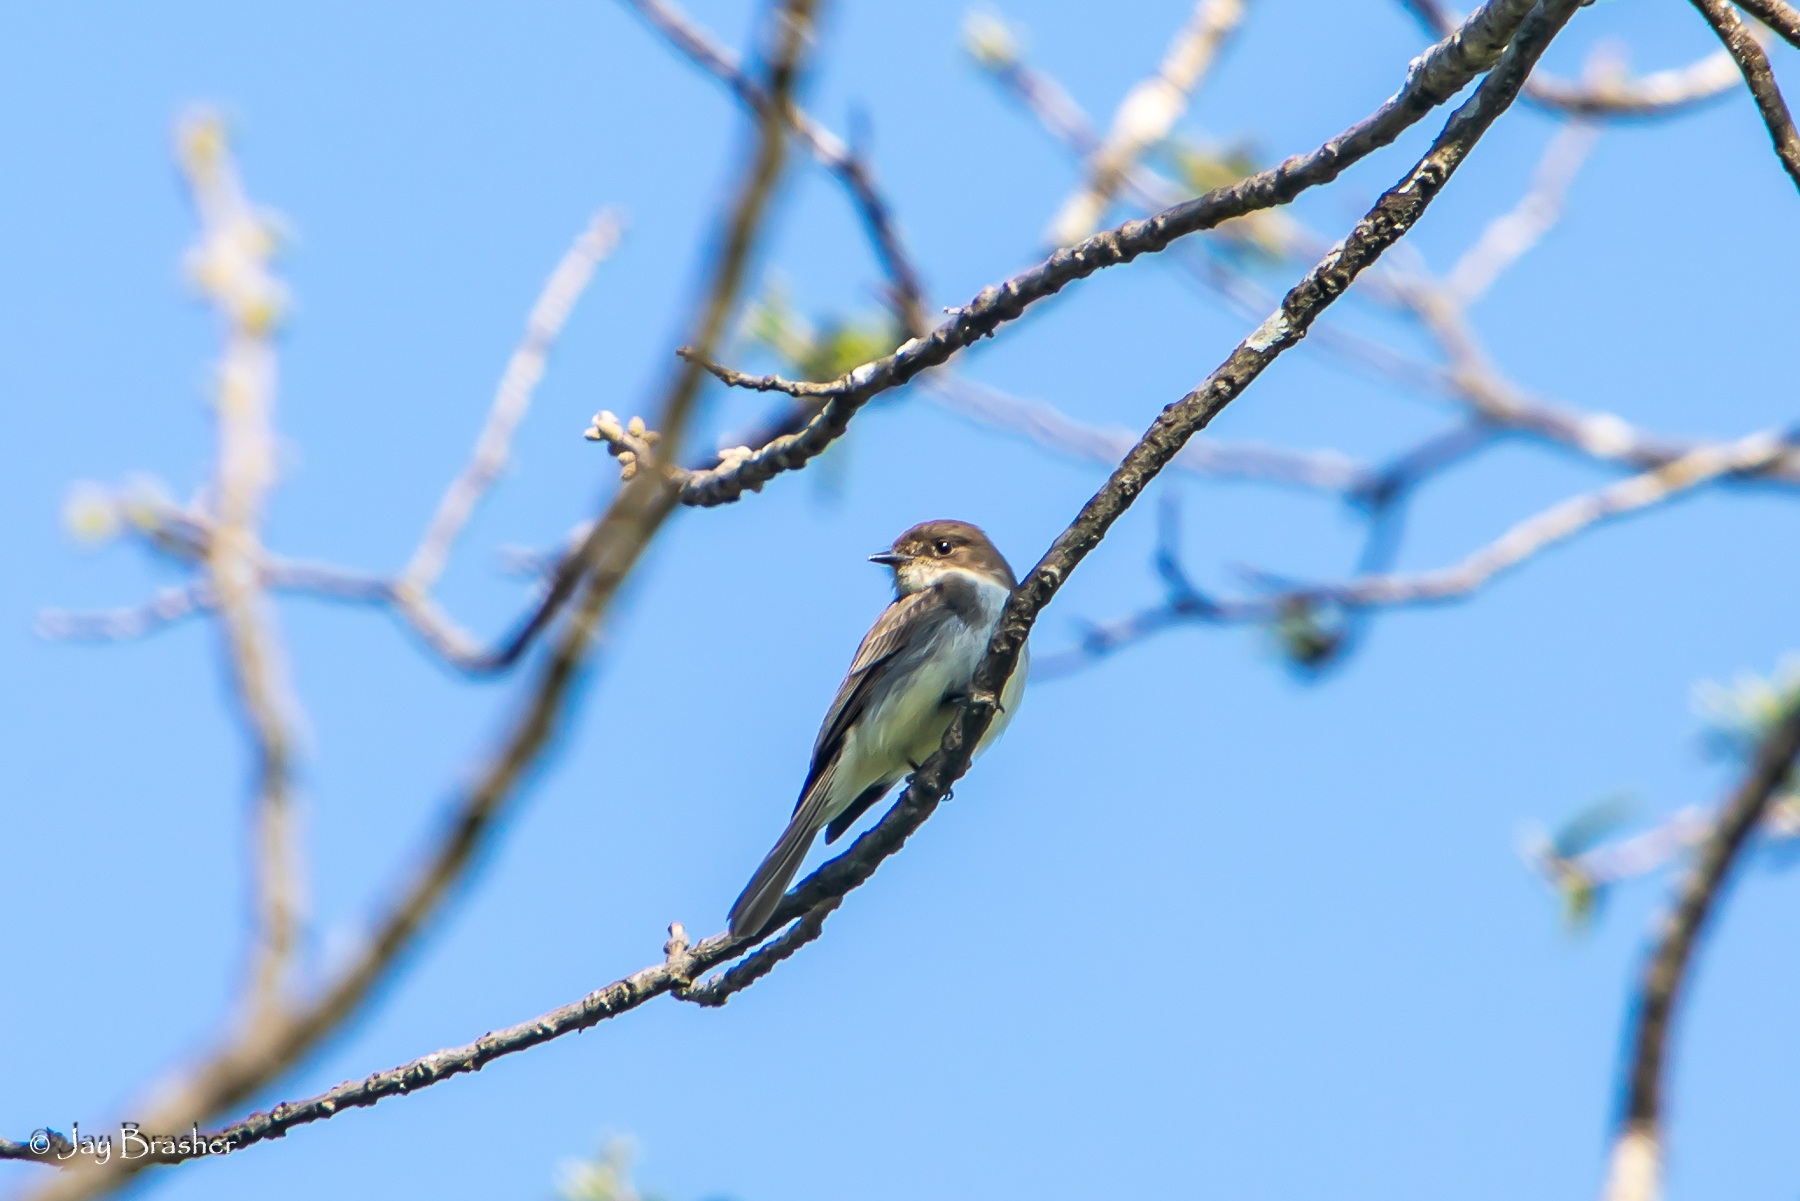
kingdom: Animalia
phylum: Chordata
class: Aves
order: Passeriformes
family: Tyrannidae
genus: Sayornis
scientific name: Sayornis phoebe
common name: Eastern phoebe
